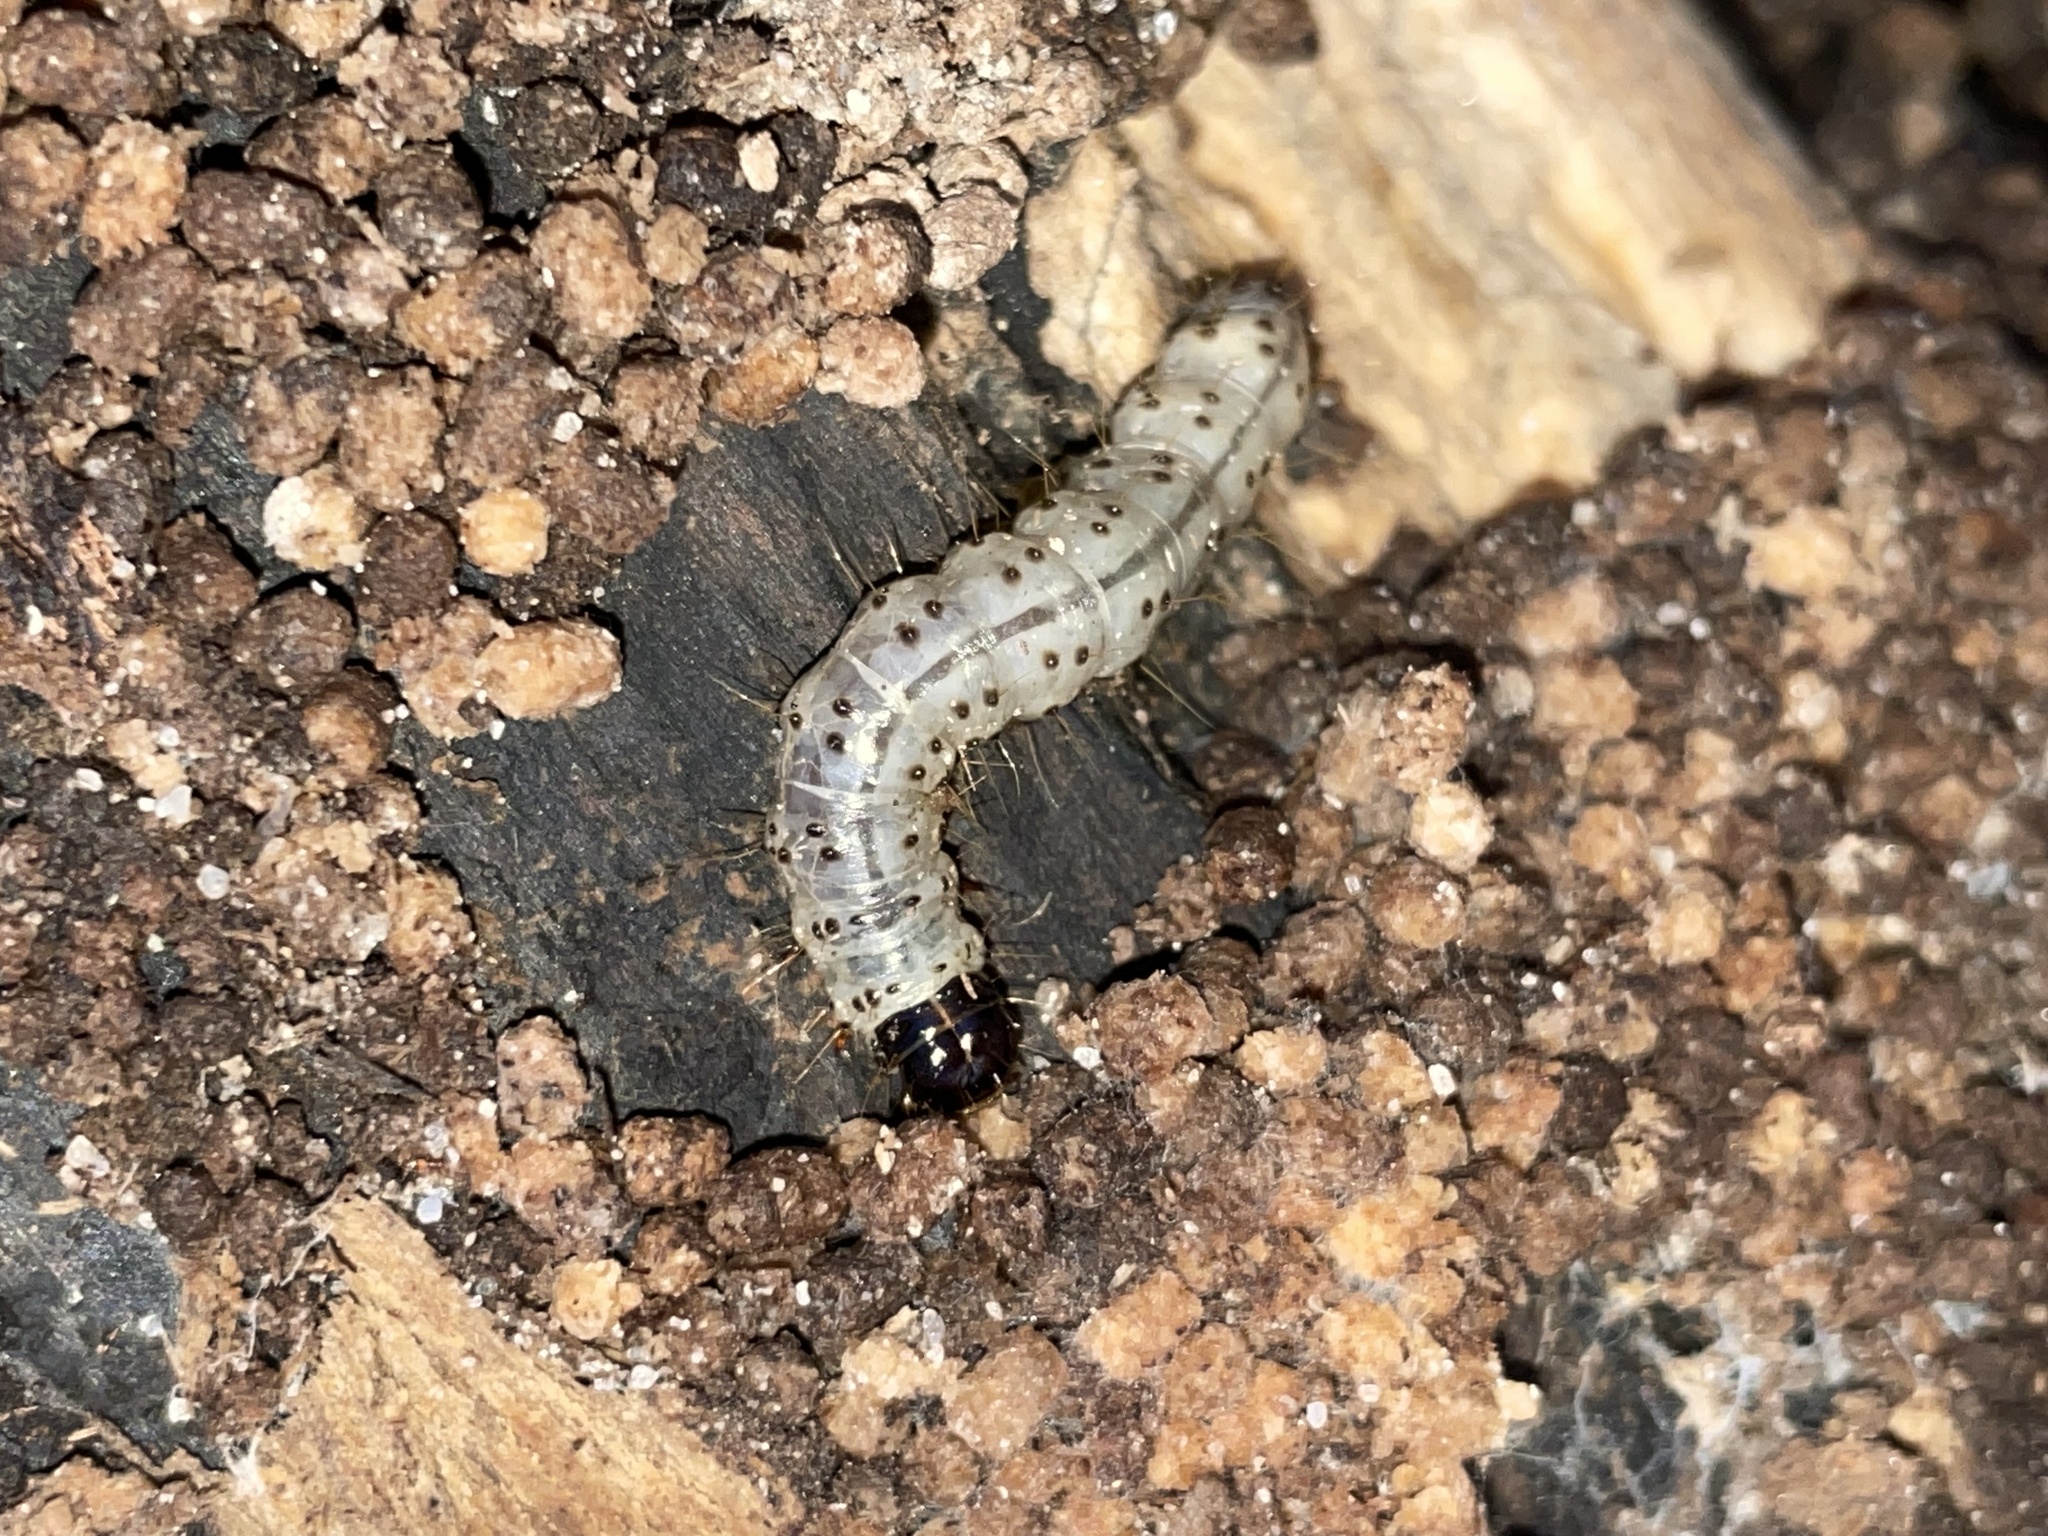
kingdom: Animalia
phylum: Arthropoda
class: Insecta
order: Lepidoptera
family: Erebidae
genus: Scolecocampa
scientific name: Scolecocampa liburna
